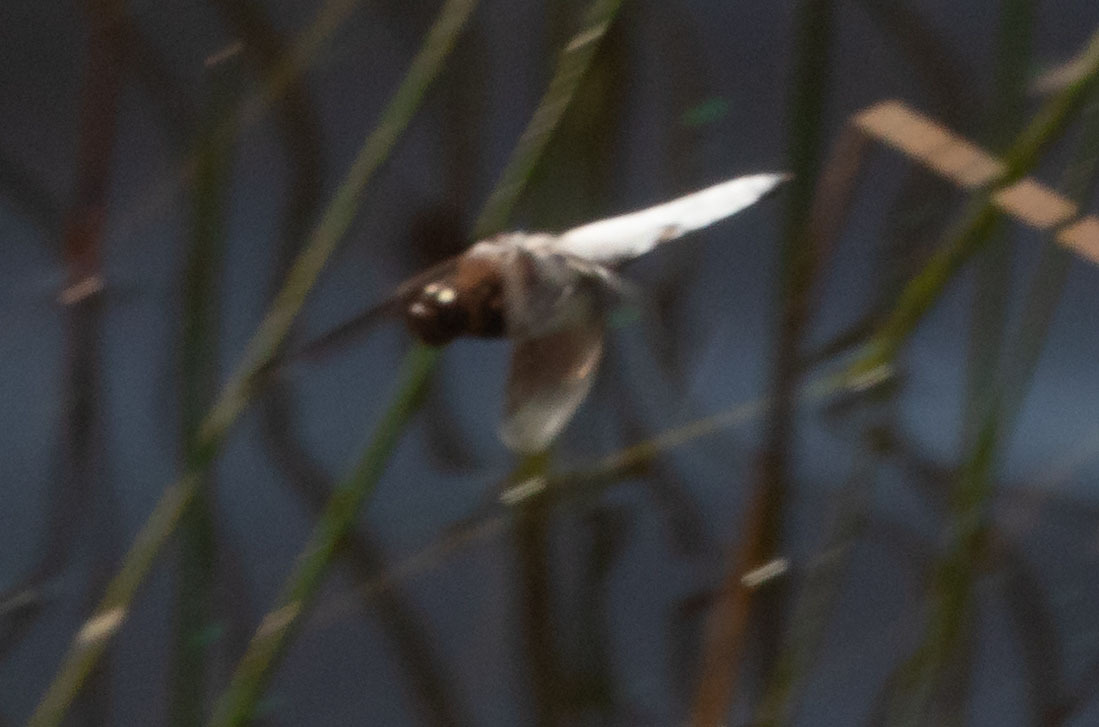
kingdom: Animalia
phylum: Arthropoda
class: Insecta
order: Odonata
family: Libellulidae
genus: Plathemis
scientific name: Plathemis lydia
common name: Common whitetail
